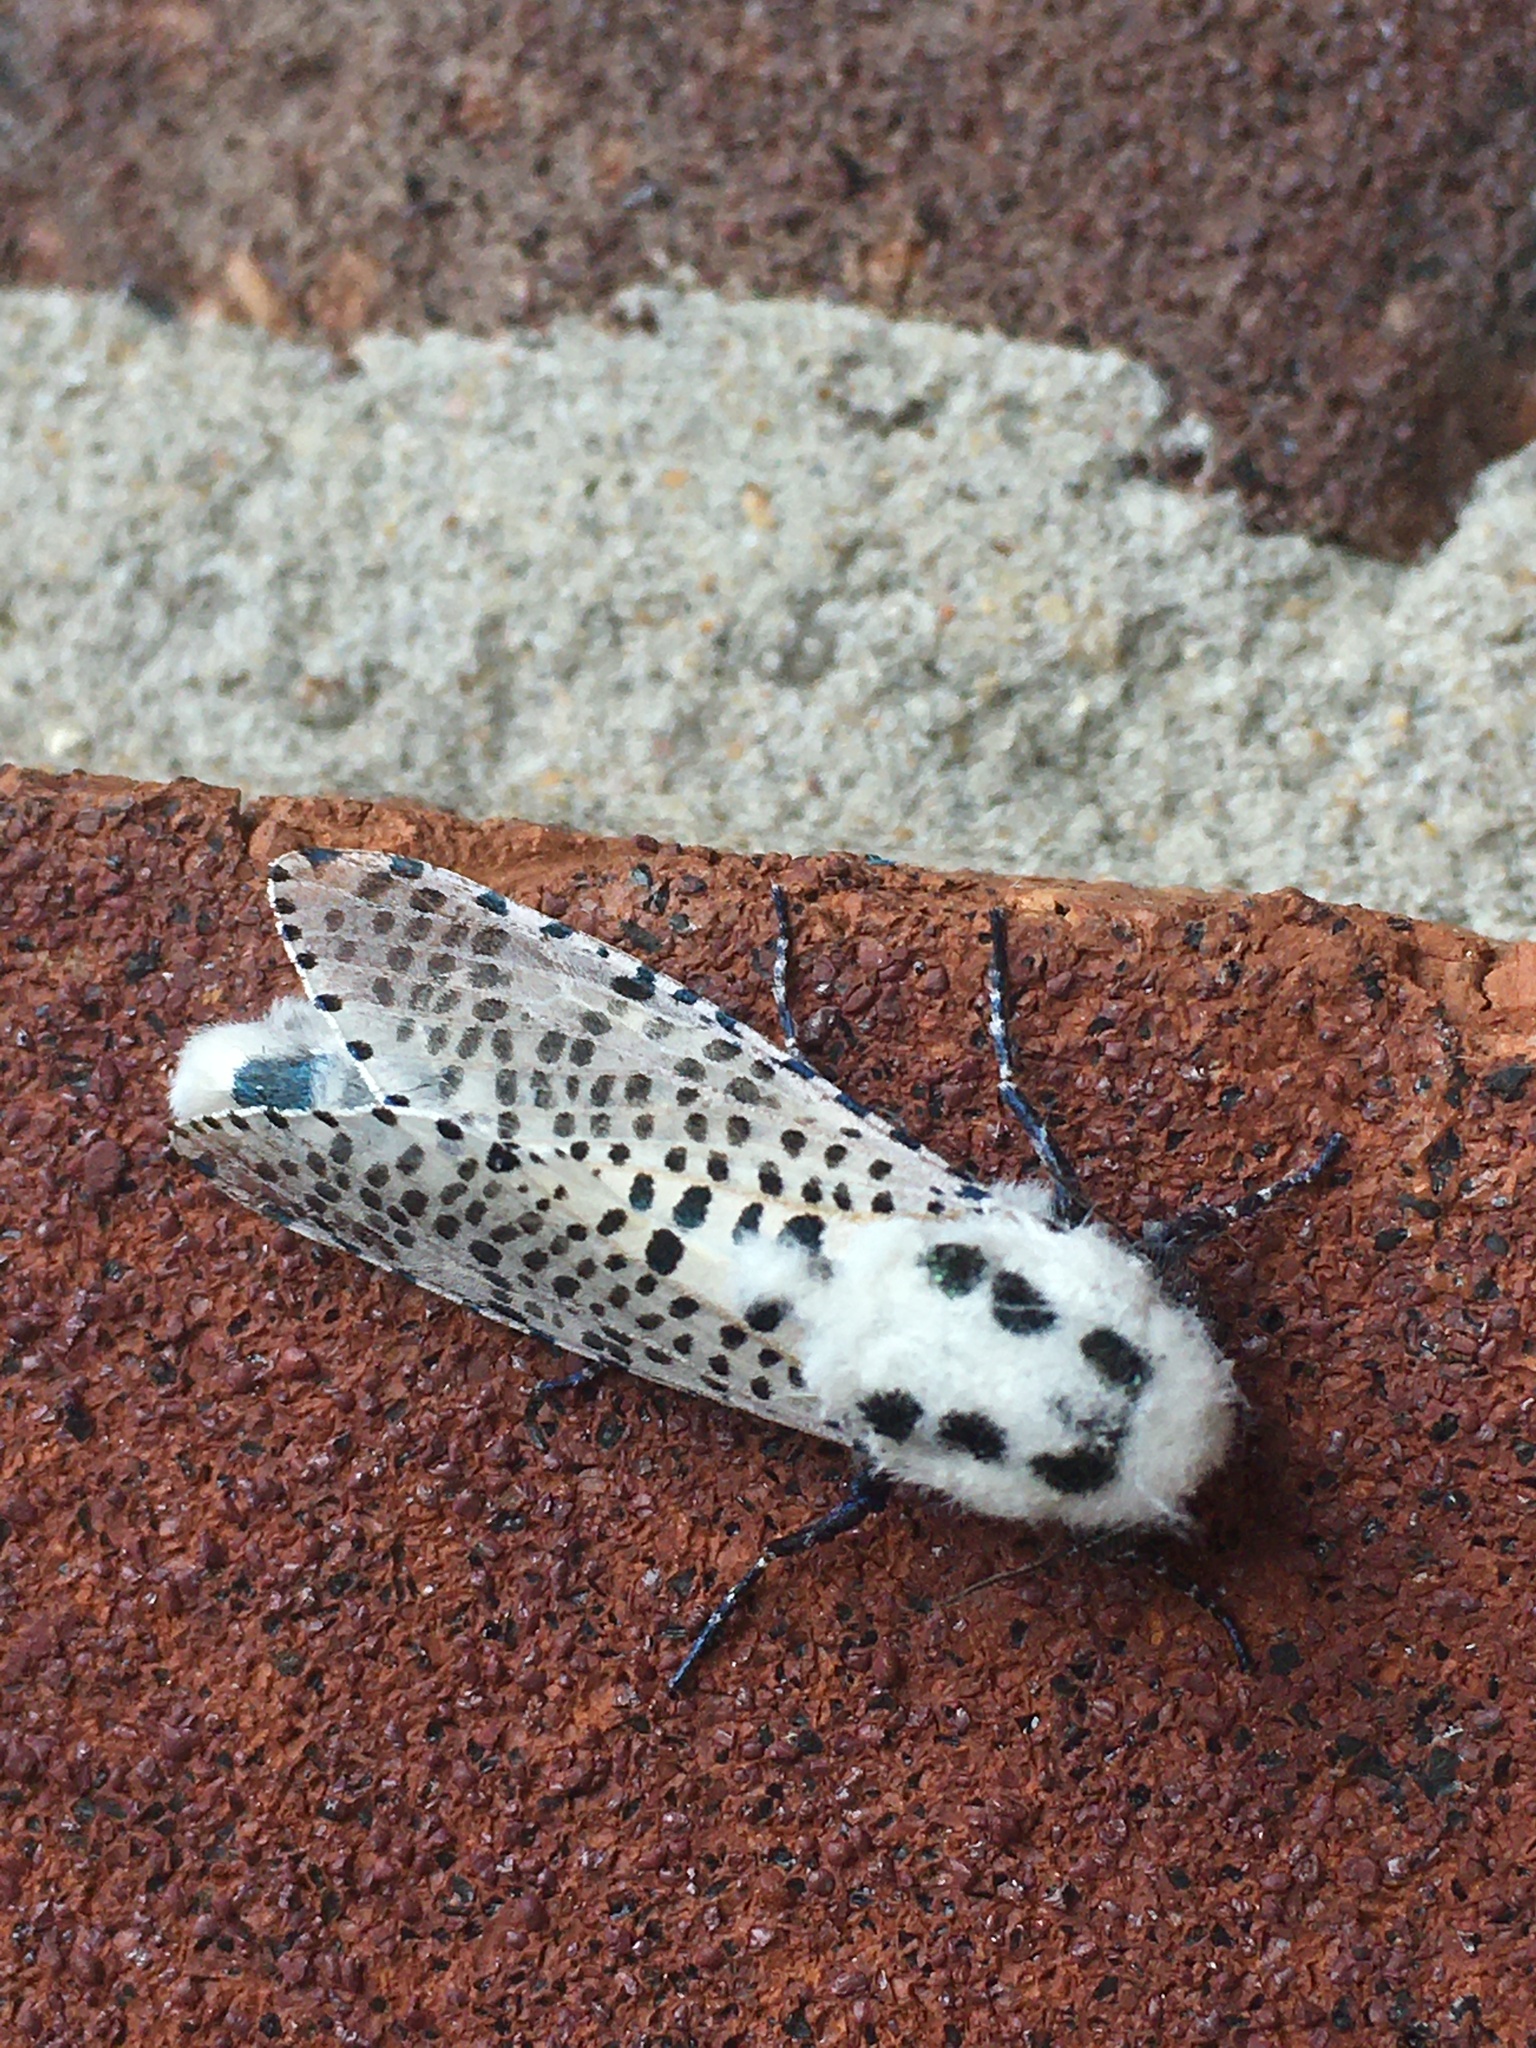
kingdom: Animalia
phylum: Arthropoda
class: Insecta
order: Lepidoptera
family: Cossidae
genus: Zeuzera
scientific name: Zeuzera pyrina
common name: Leopard moth
